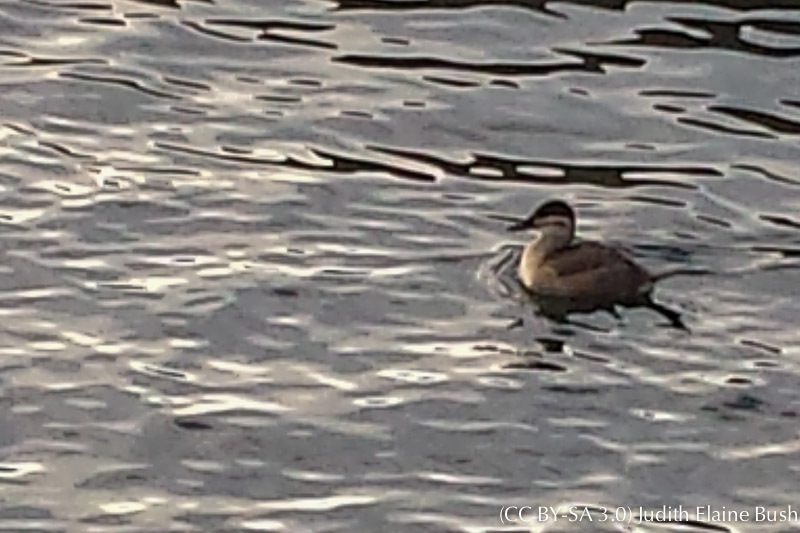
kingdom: Animalia
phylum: Chordata
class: Aves
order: Anseriformes
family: Anatidae
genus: Oxyura
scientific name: Oxyura jamaicensis
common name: Ruddy duck
